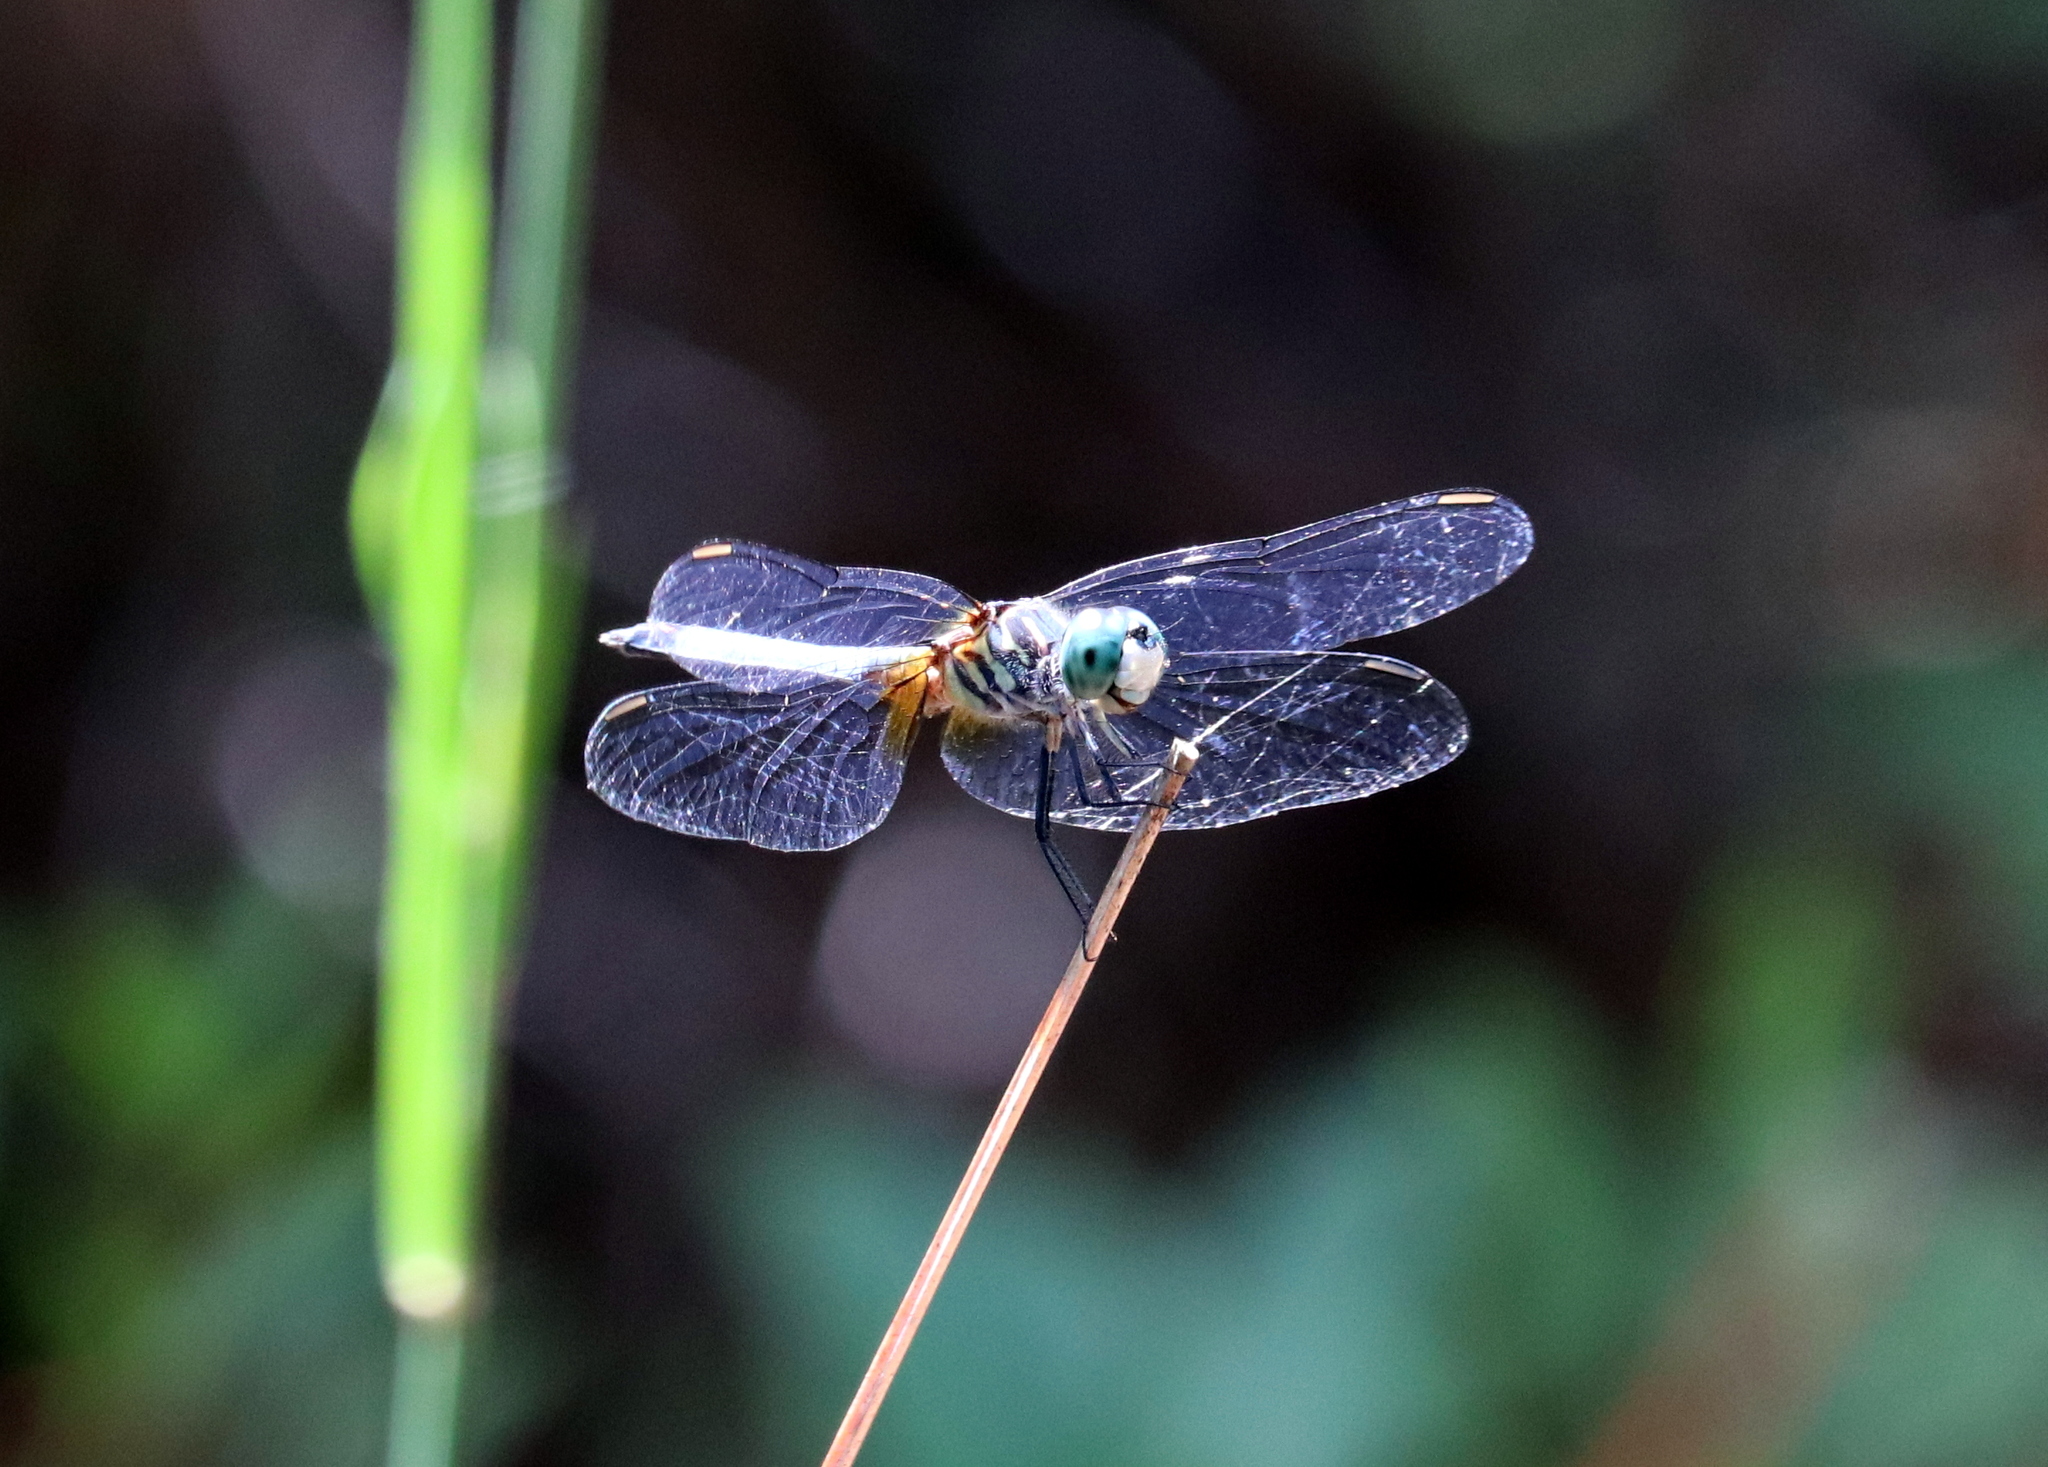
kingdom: Animalia
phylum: Arthropoda
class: Insecta
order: Odonata
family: Libellulidae
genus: Pachydiplax
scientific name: Pachydiplax longipennis
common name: Blue dasher
